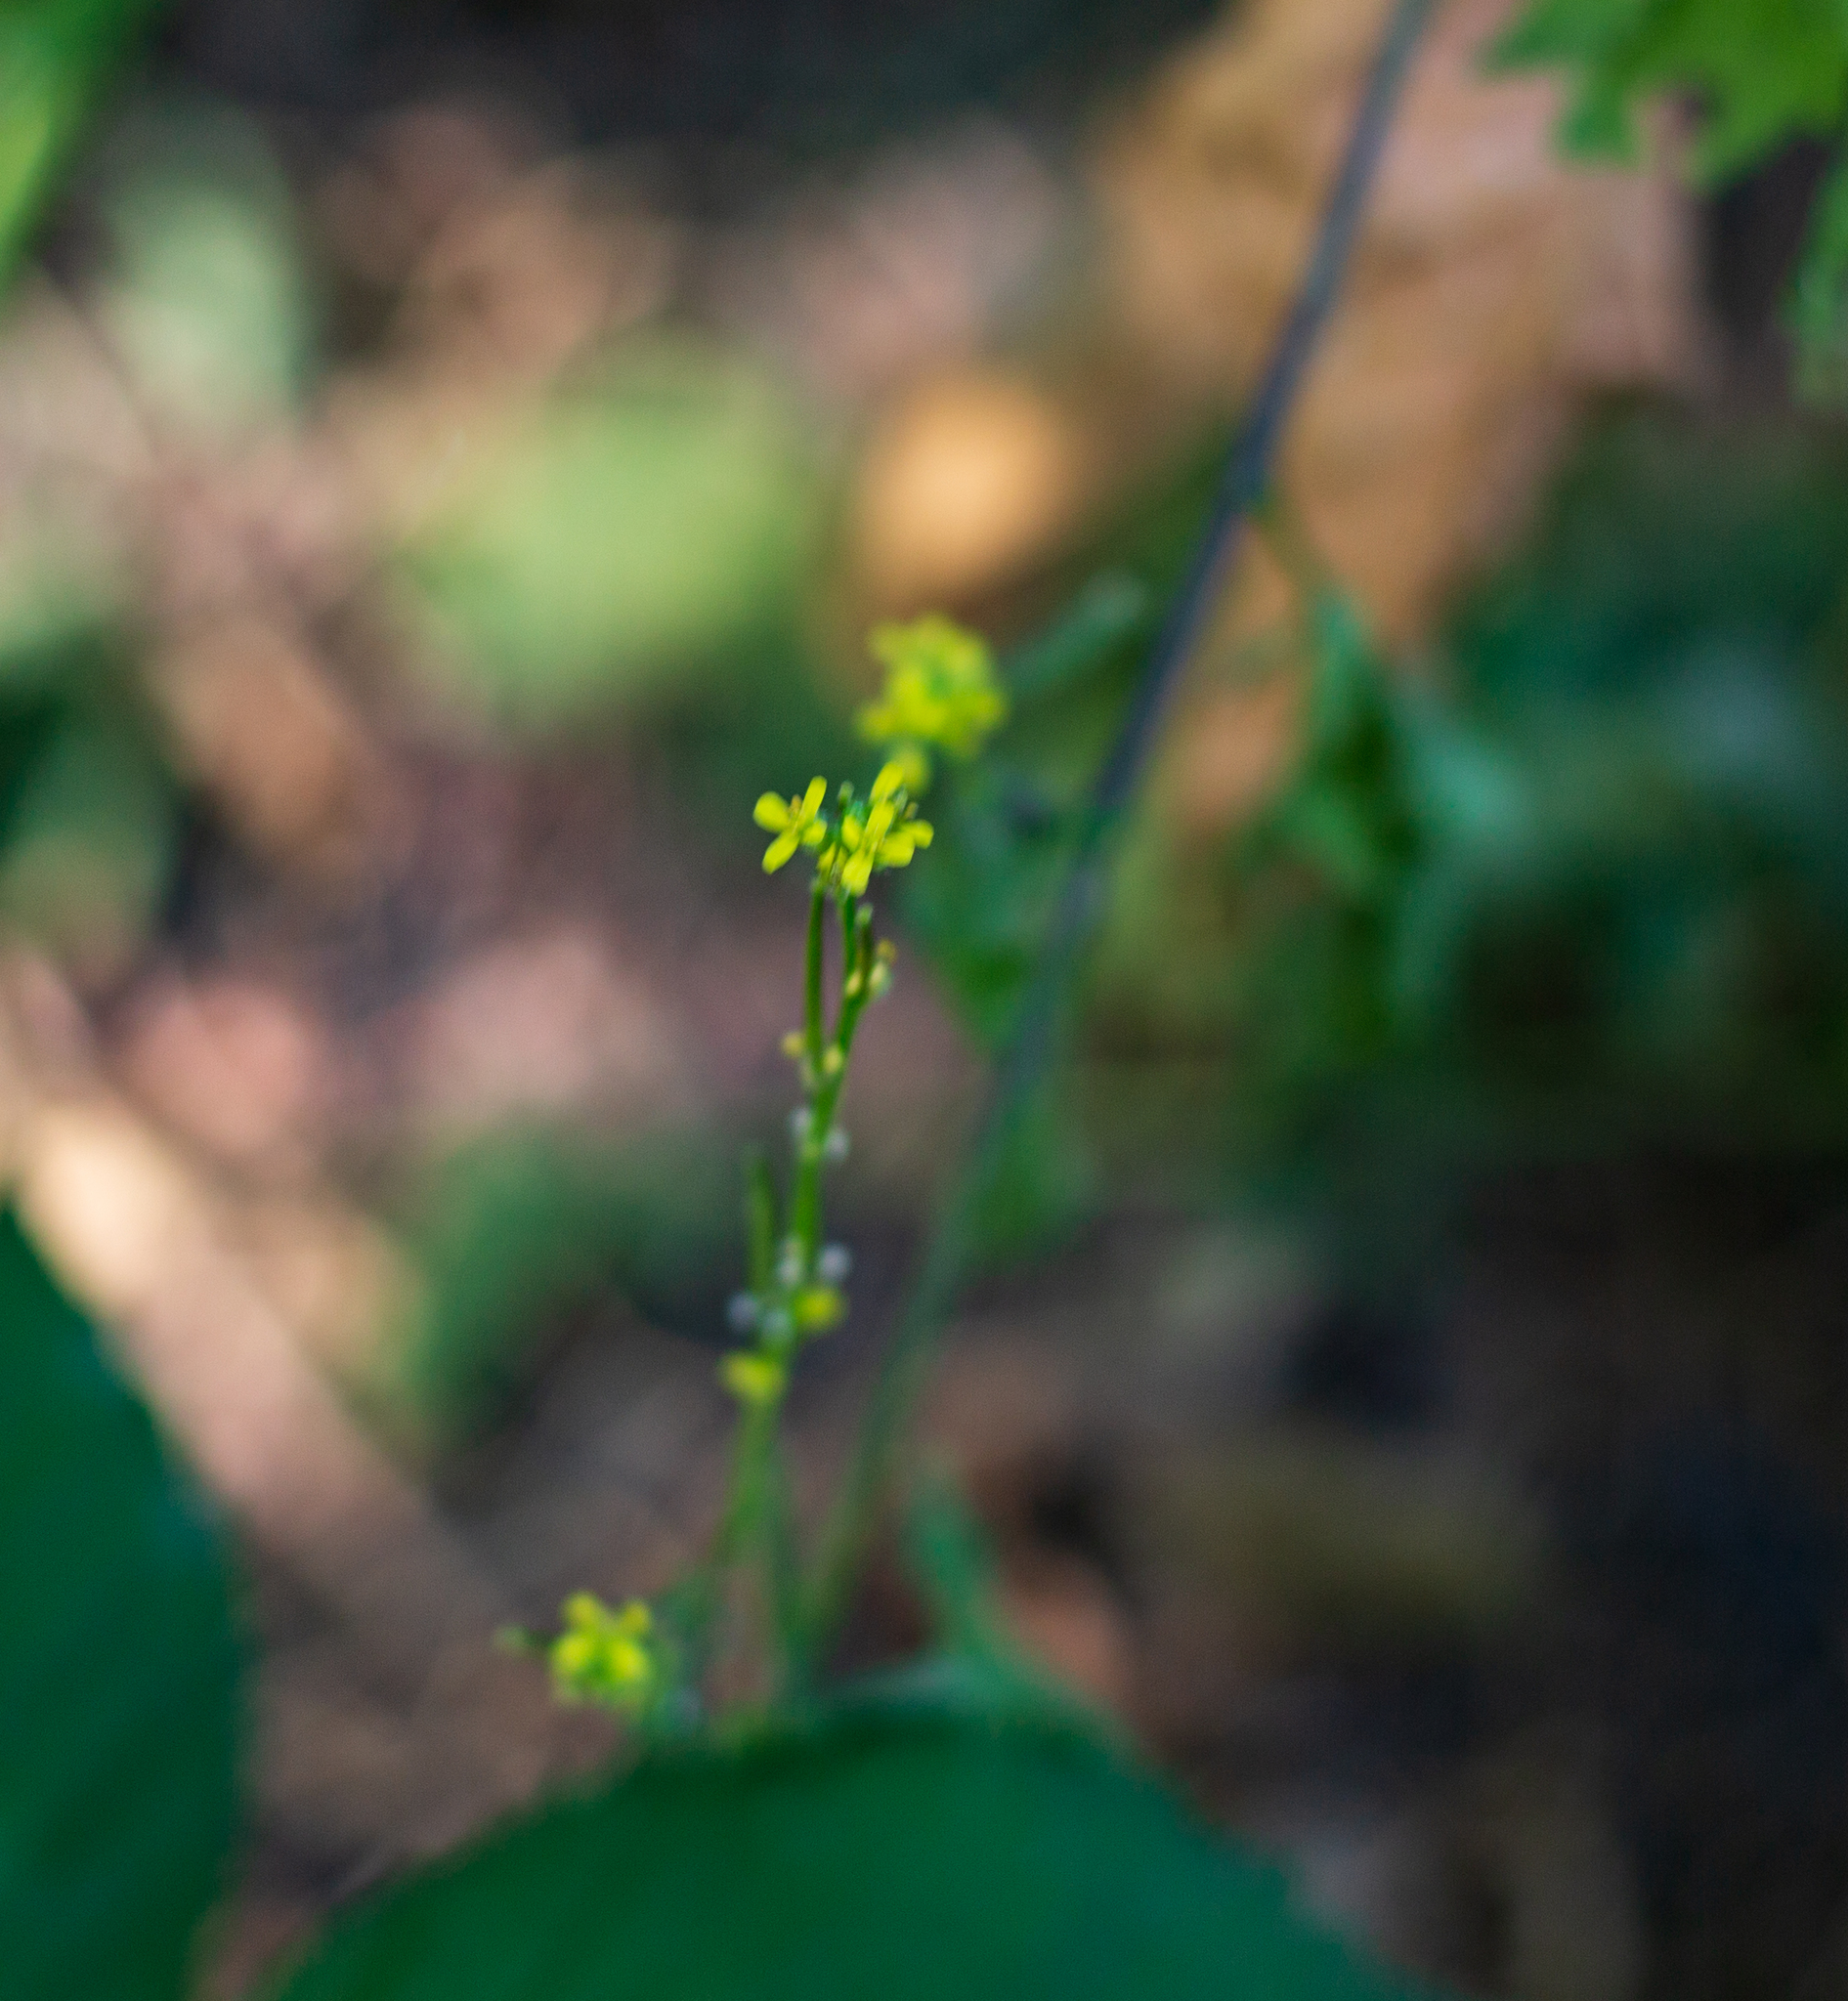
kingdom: Plantae
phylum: Tracheophyta
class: Magnoliopsida
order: Brassicales
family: Brassicaceae
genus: Sisymbrium
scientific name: Sisymbrium officinale
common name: Hedge mustard
